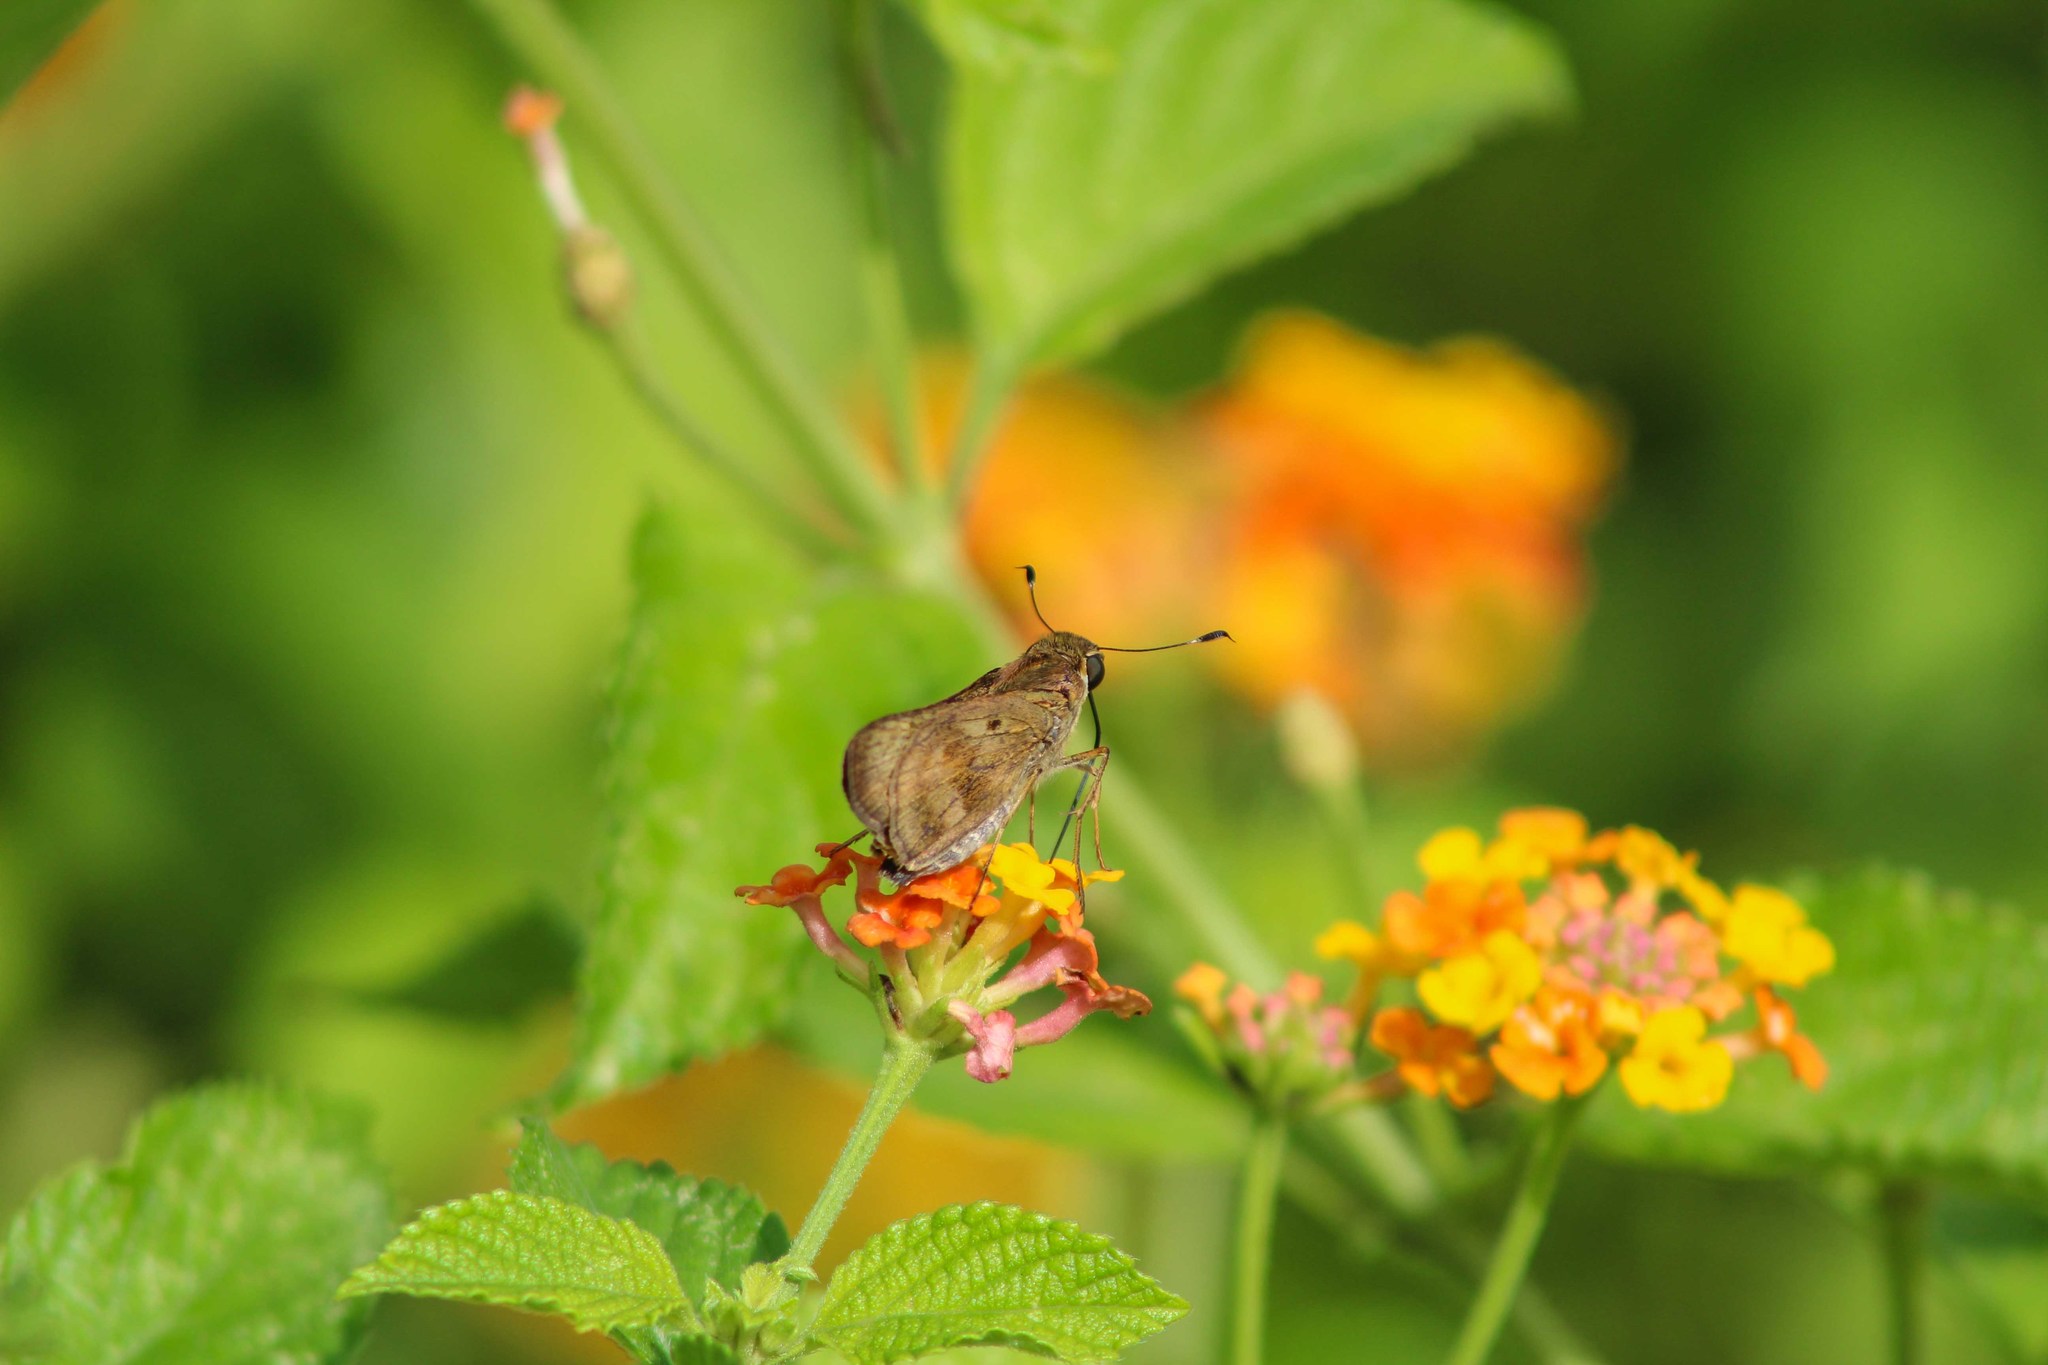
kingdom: Animalia
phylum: Arthropoda
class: Insecta
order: Lepidoptera
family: Hesperiidae
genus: Nyctelius
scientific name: Nyctelius nyctelius
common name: Violet-banded skipper
